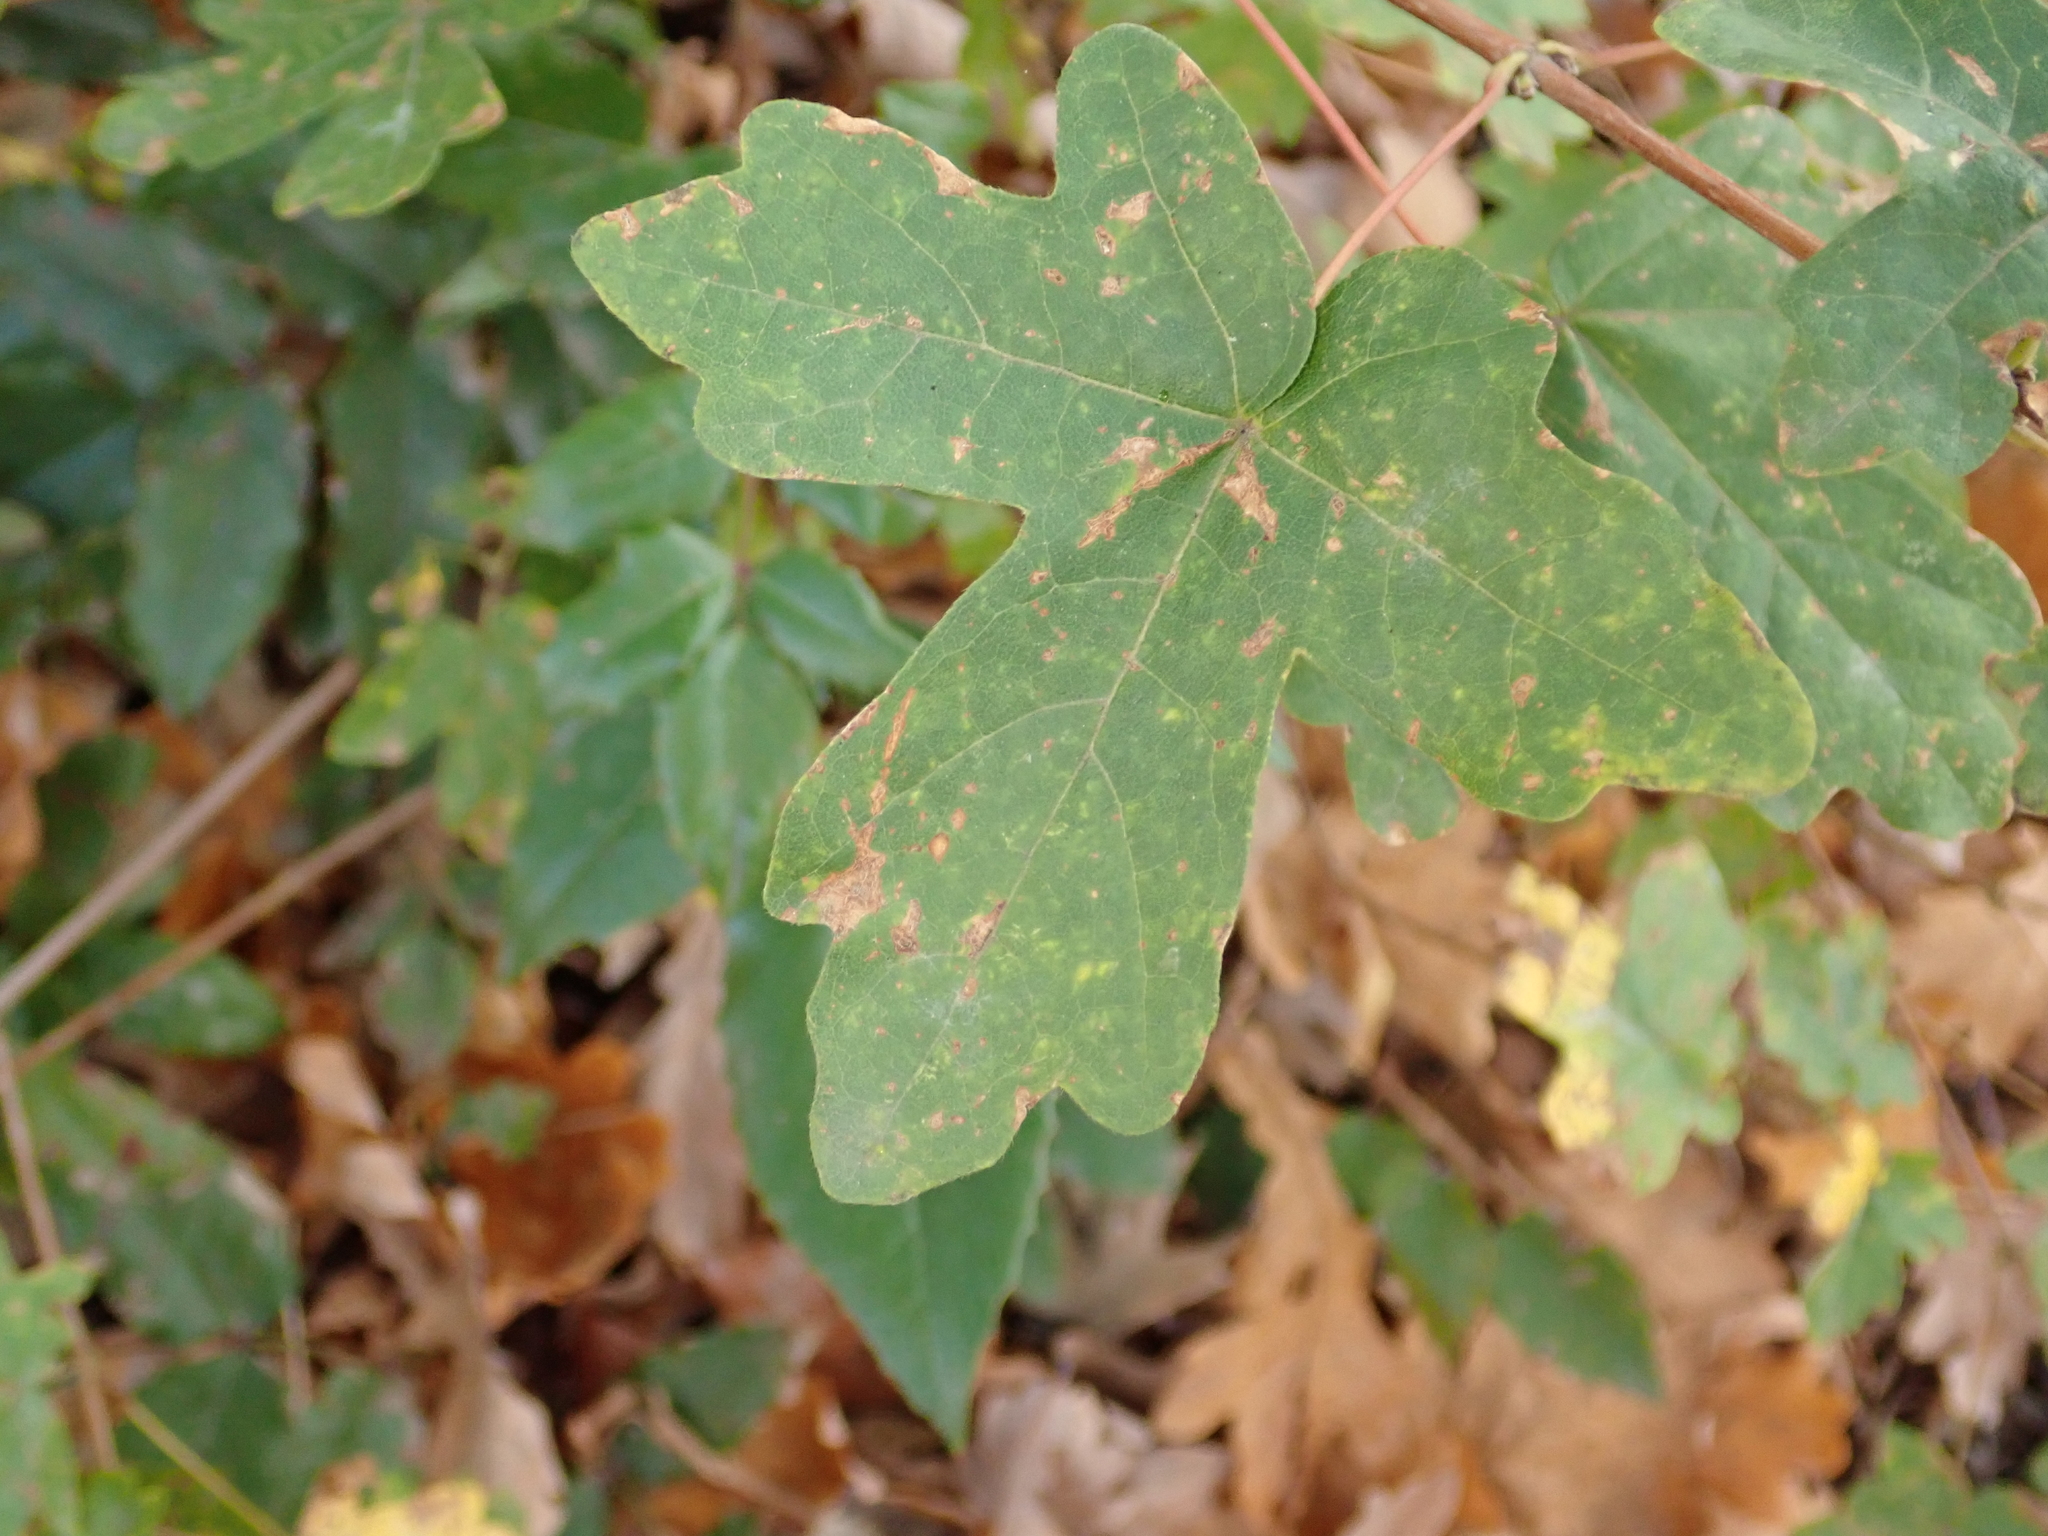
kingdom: Plantae
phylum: Tracheophyta
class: Magnoliopsida
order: Sapindales
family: Sapindaceae
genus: Acer
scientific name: Acer campestre
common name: Field maple
